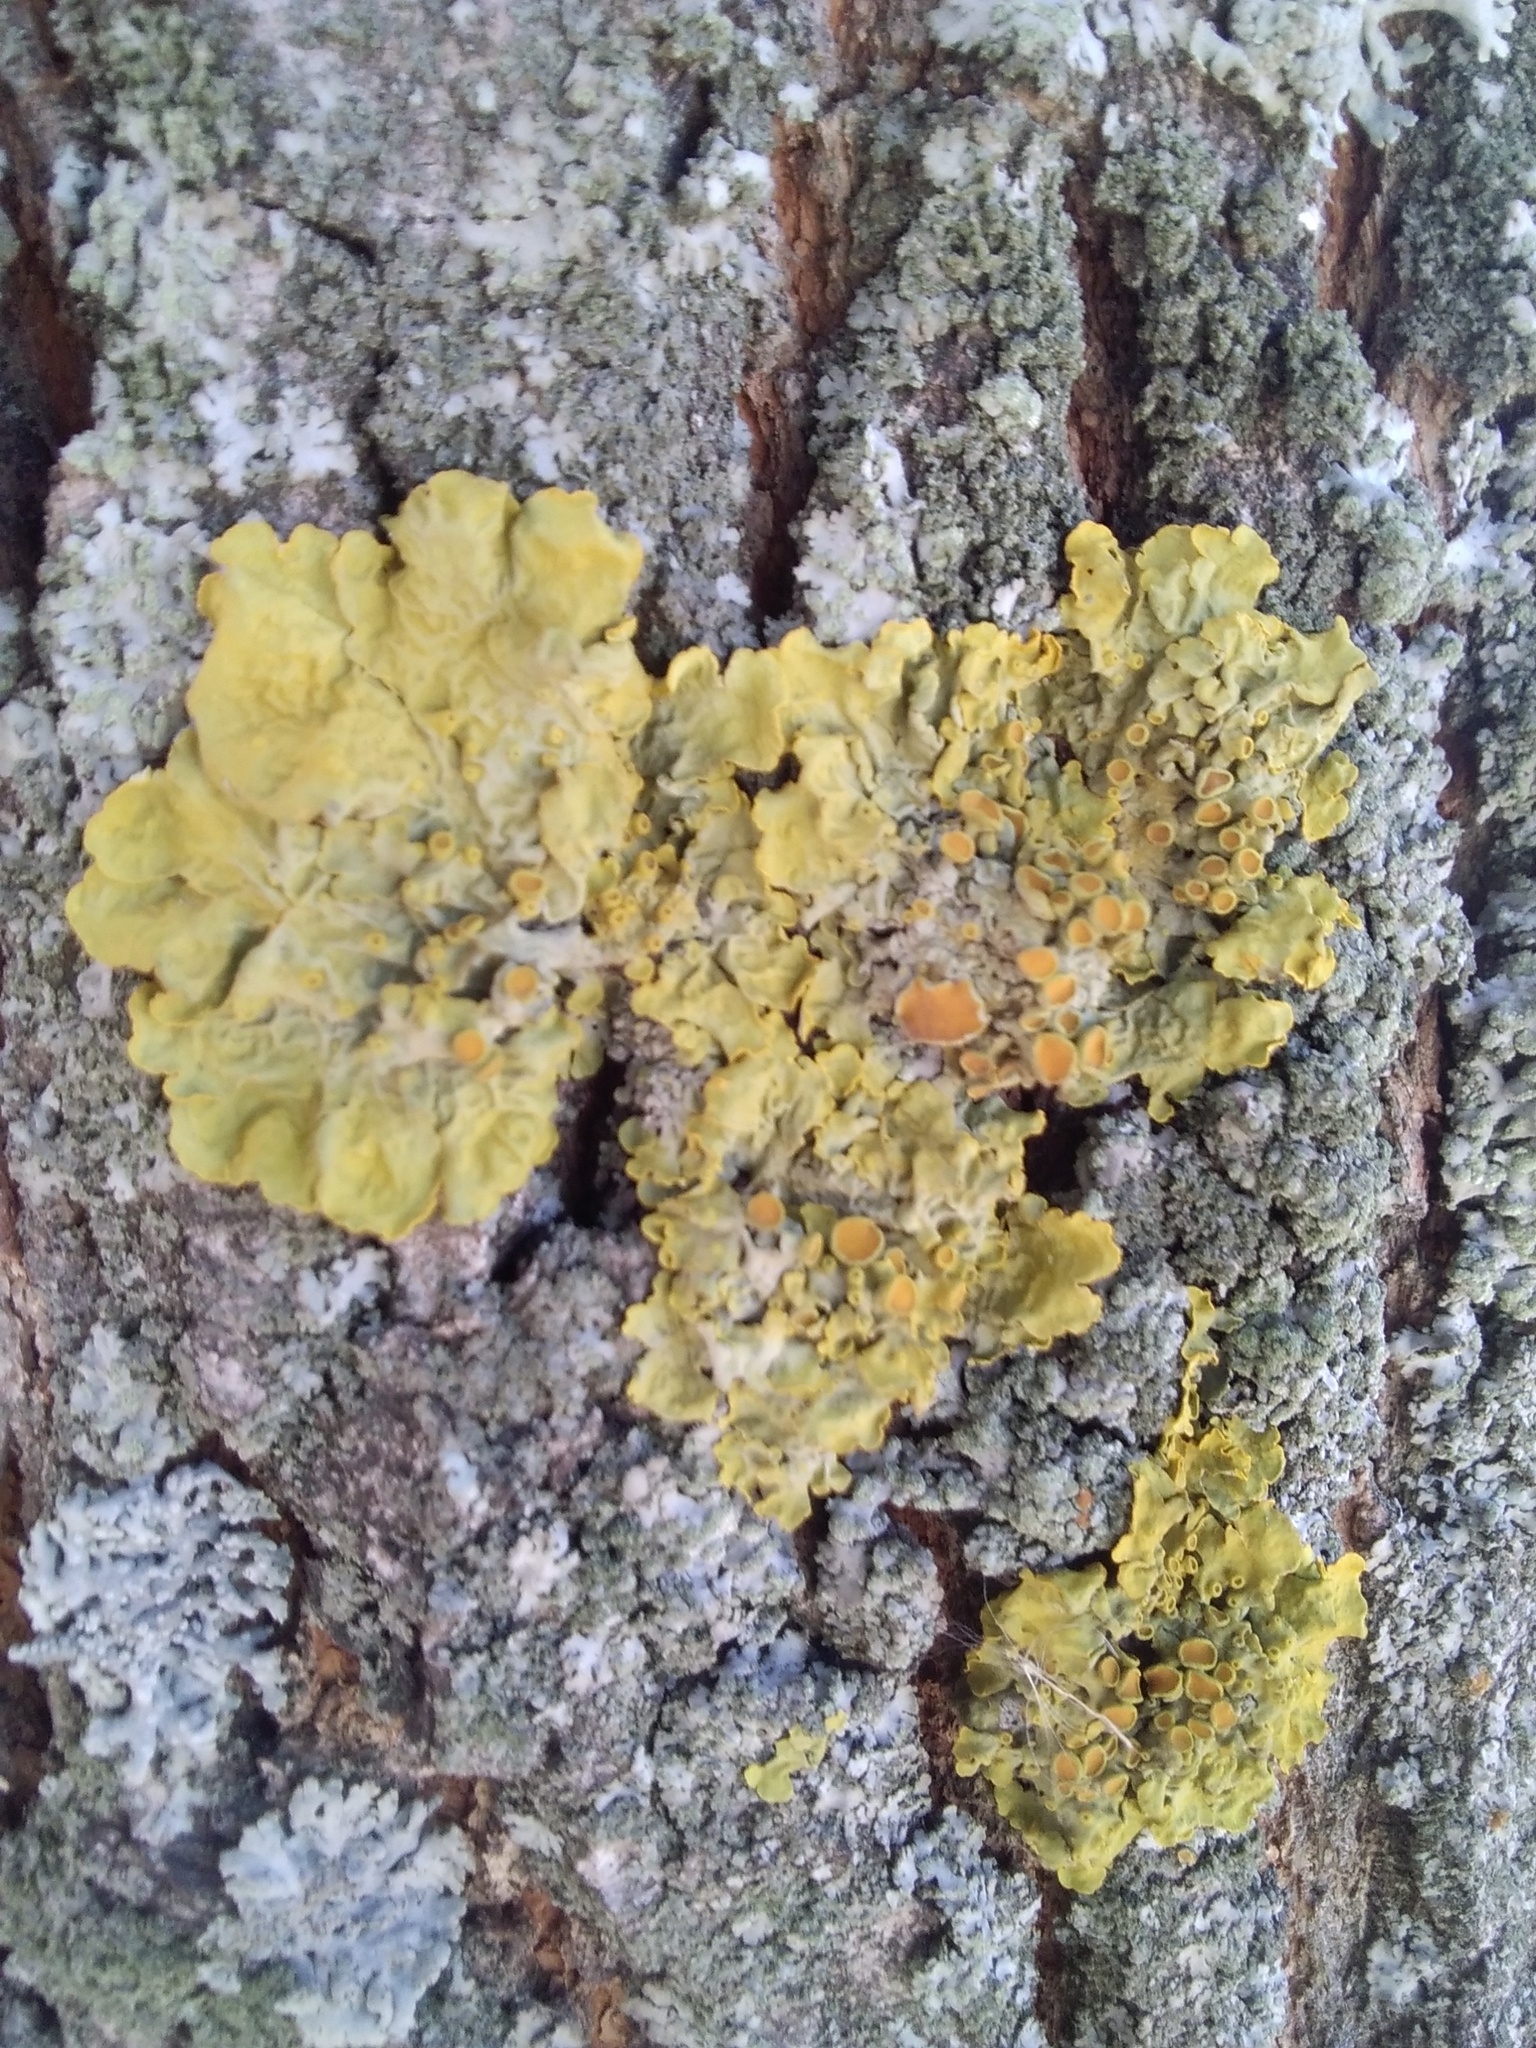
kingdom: Fungi
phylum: Ascomycota
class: Lecanoromycetes
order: Teloschistales
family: Teloschistaceae
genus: Xanthoria
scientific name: Xanthoria parietina
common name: Common orange lichen
